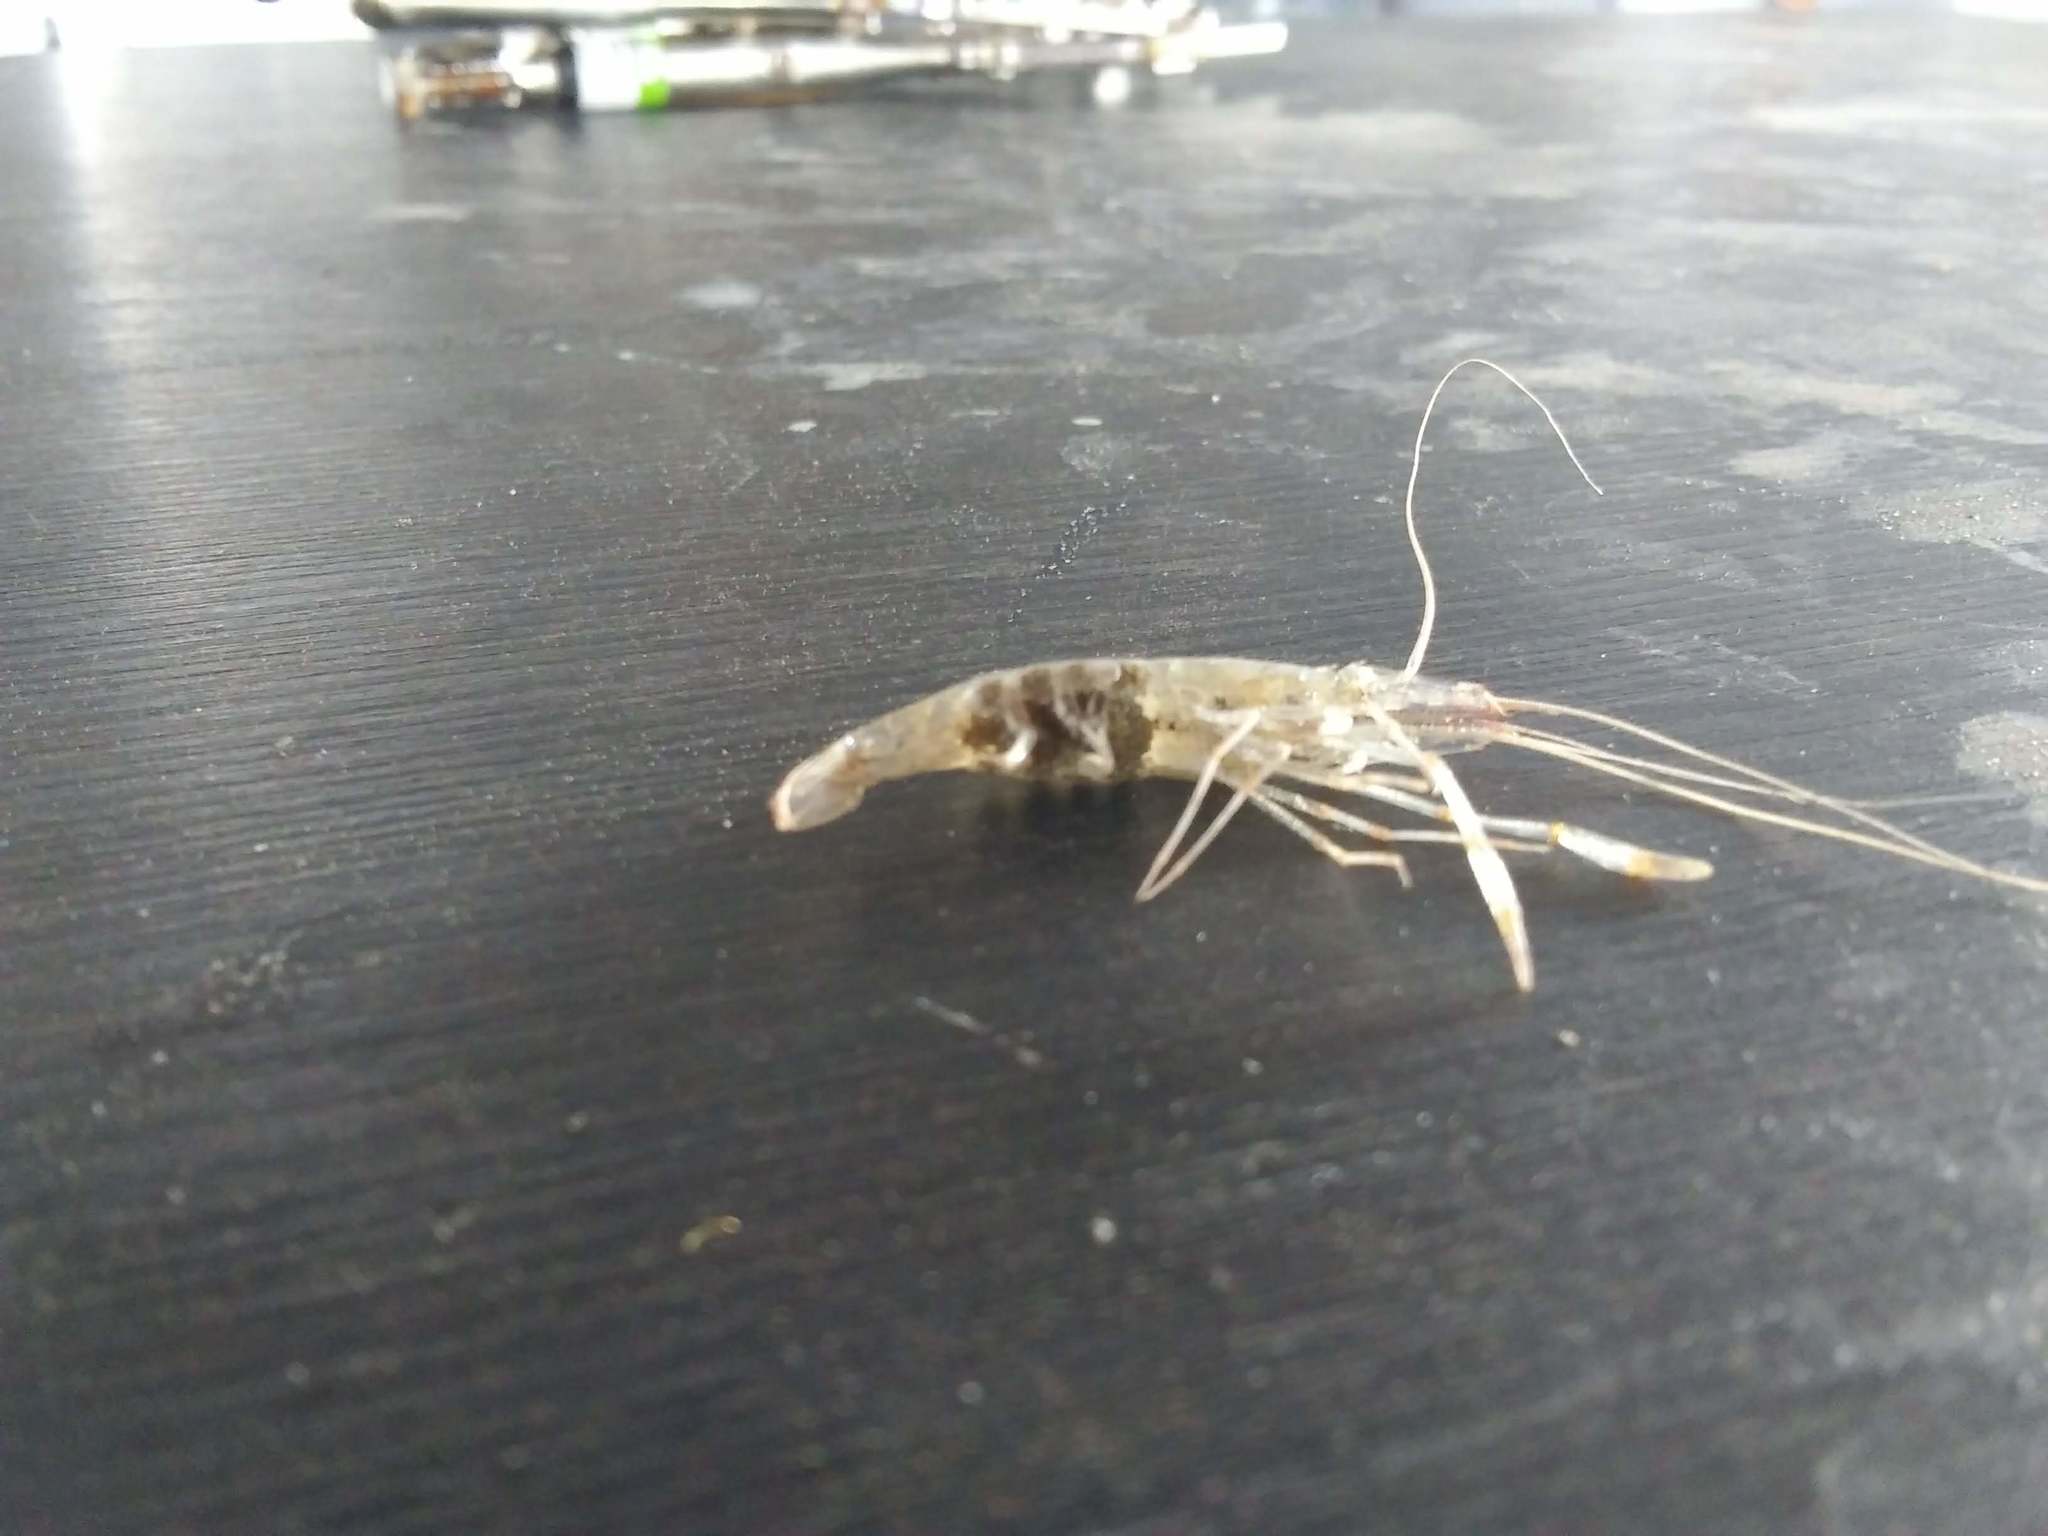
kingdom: Animalia
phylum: Arthropoda
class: Malacostraca
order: Decapoda
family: Palaemonidae
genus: Palaemon
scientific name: Palaemon vulgaris
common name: Common american prawn
